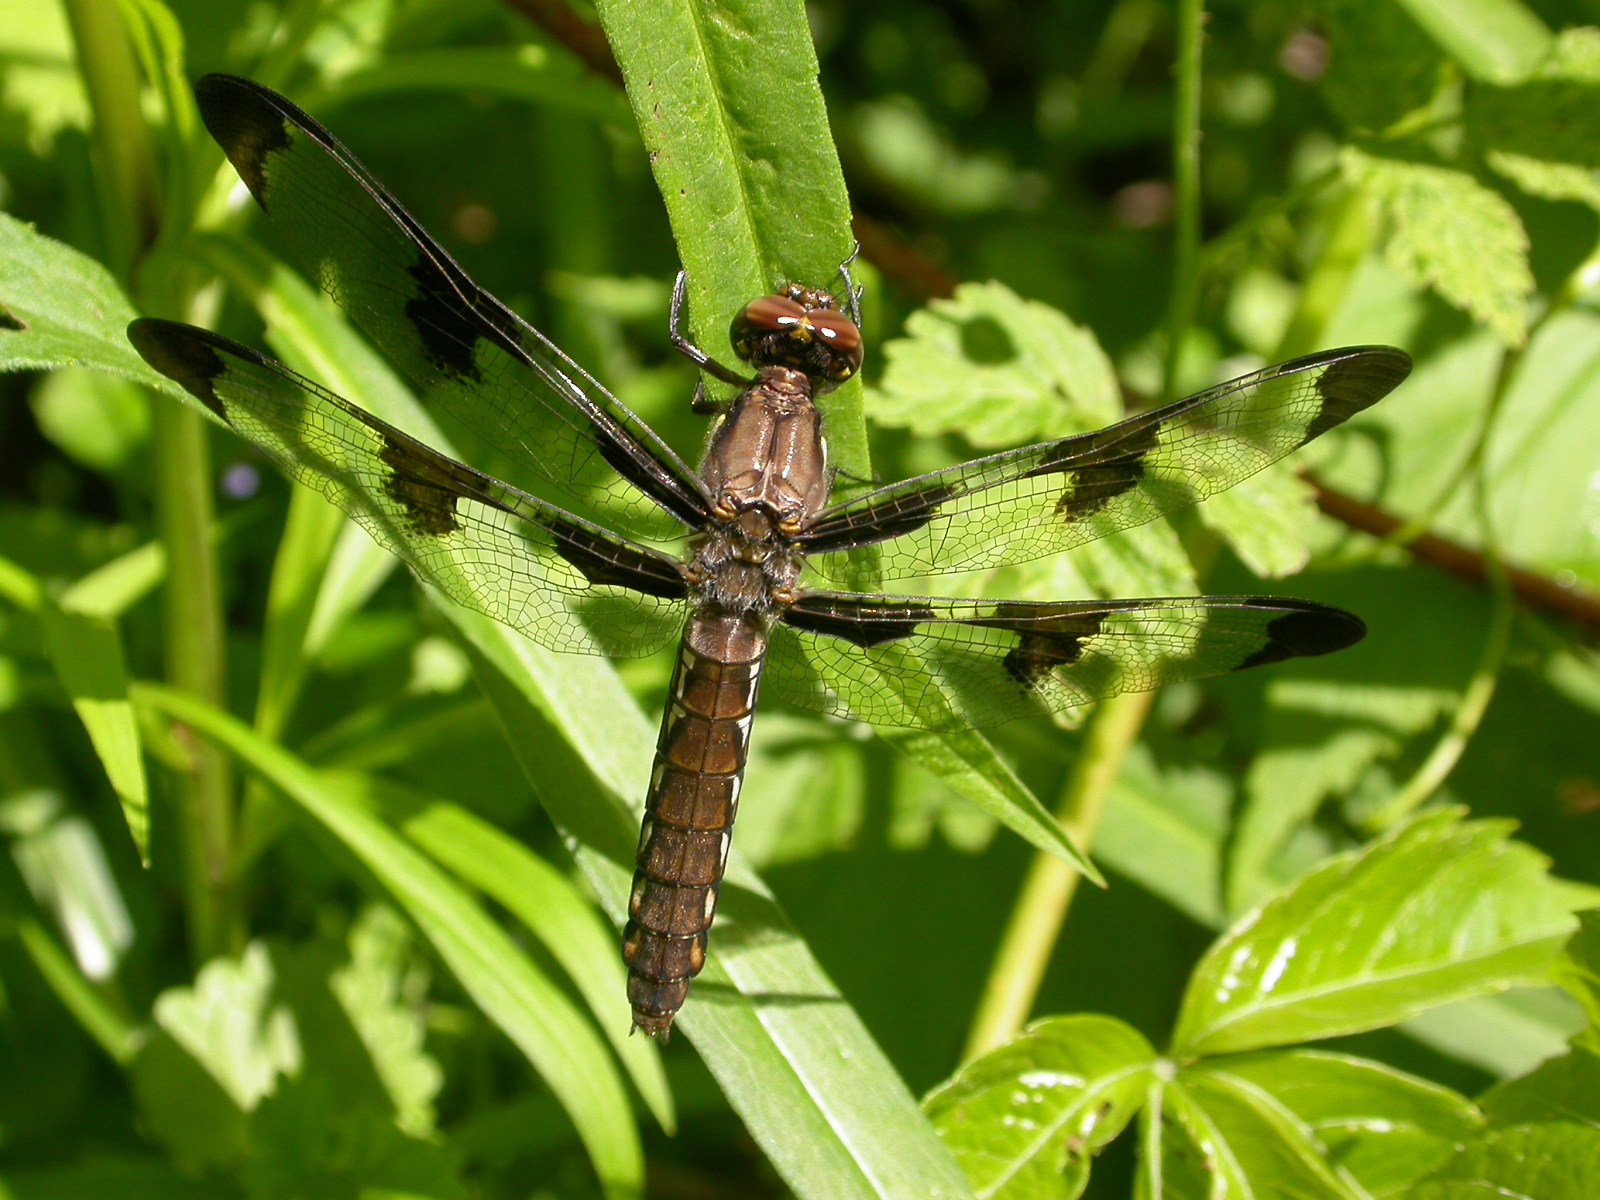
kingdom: Animalia
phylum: Arthropoda
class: Insecta
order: Odonata
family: Libellulidae
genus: Plathemis
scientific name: Plathemis lydia
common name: Common whitetail
